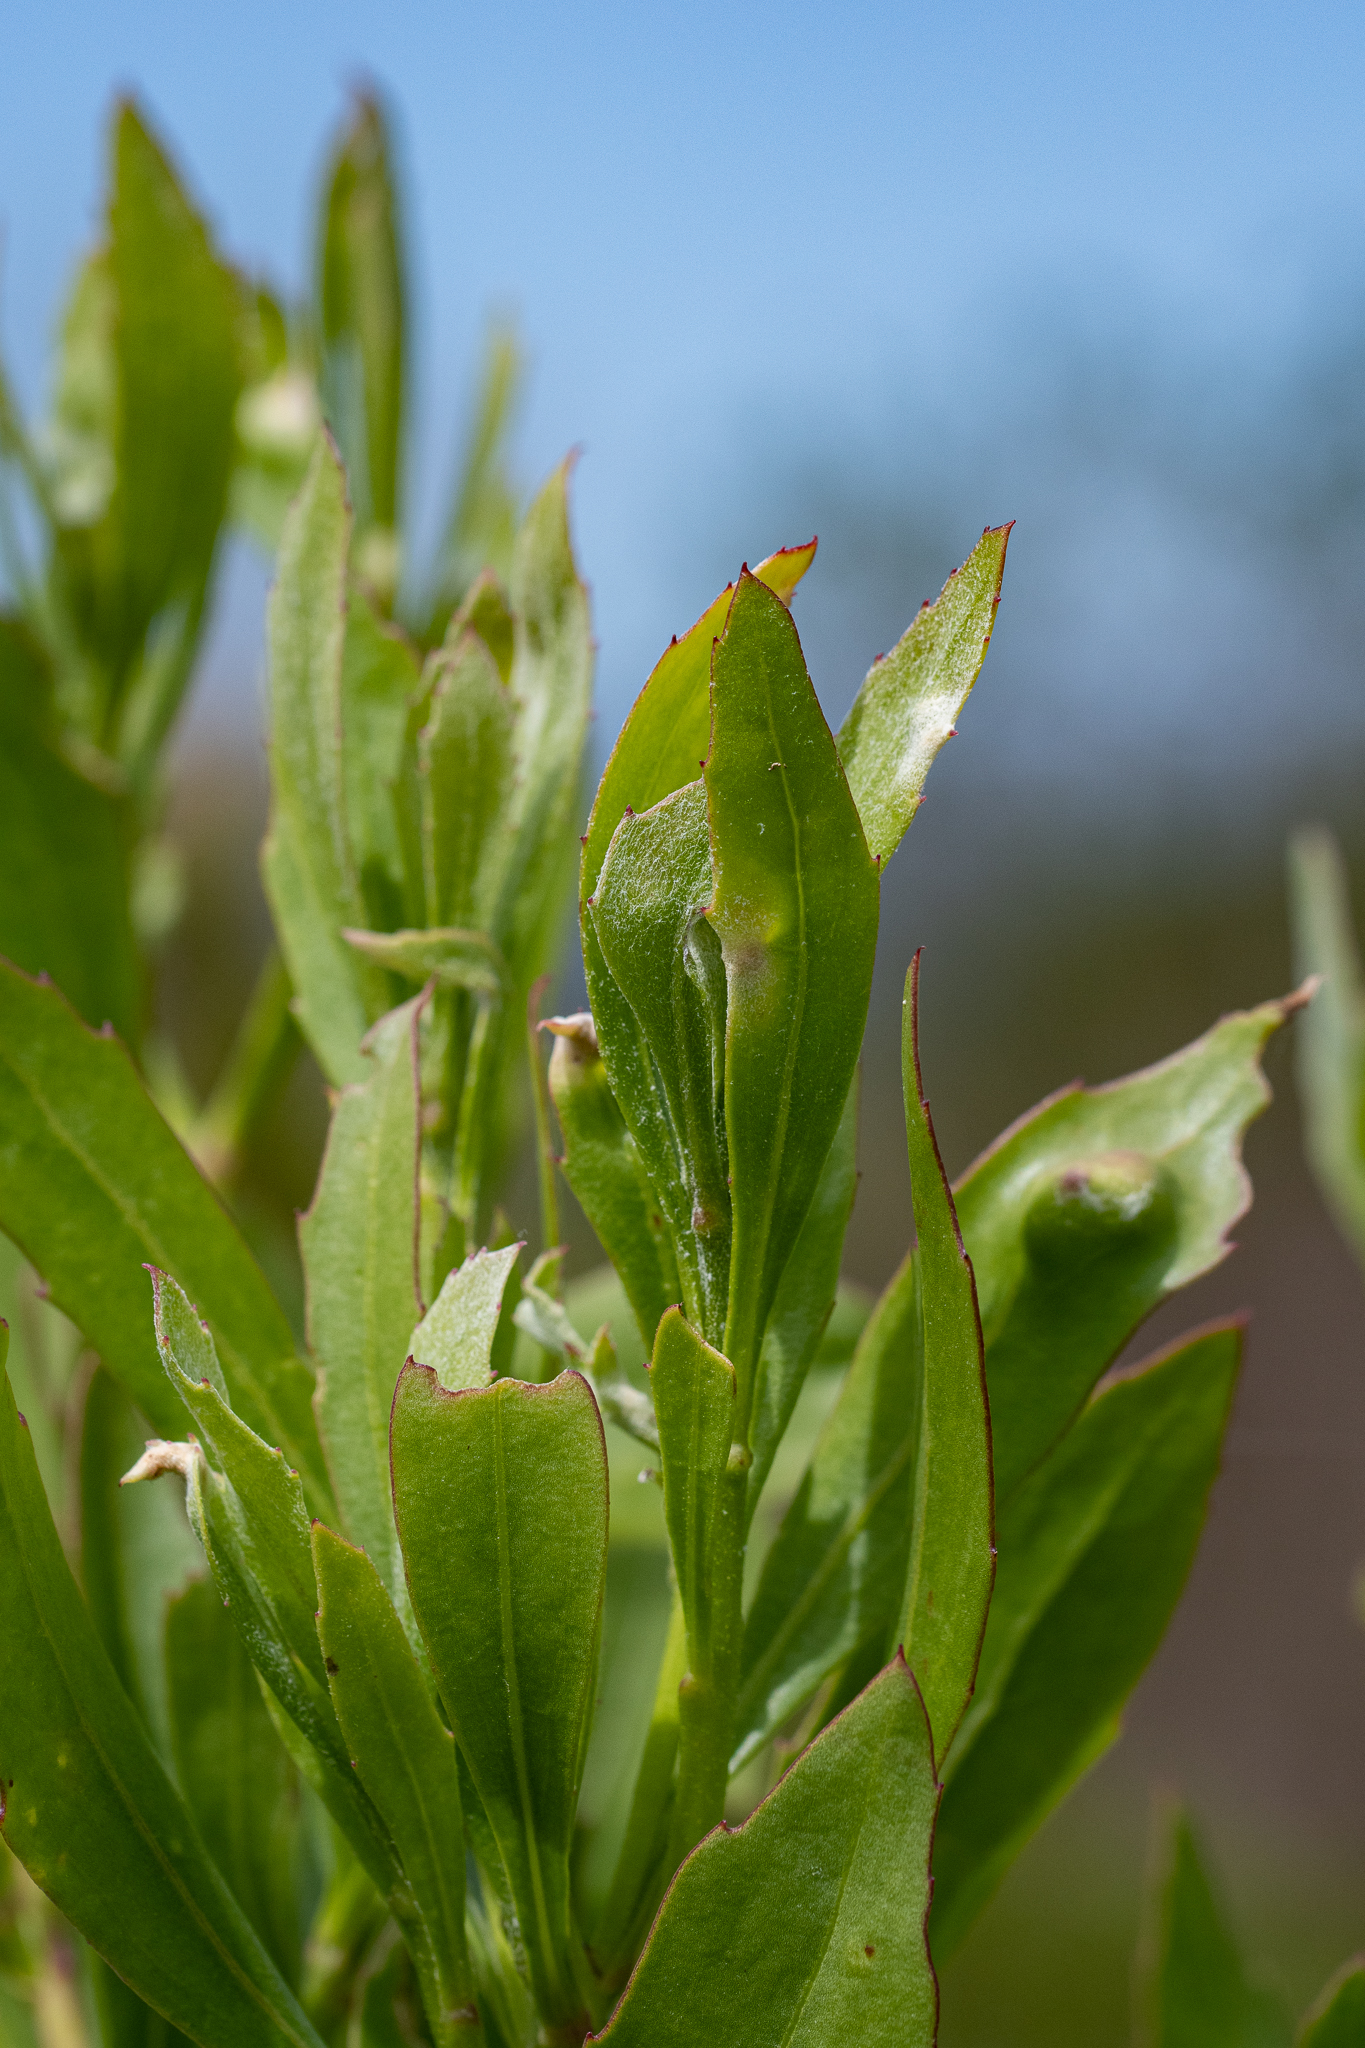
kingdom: Plantae
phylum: Tracheophyta
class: Magnoliopsida
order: Asterales
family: Asteraceae
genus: Osteospermum
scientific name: Osteospermum moniliferum
